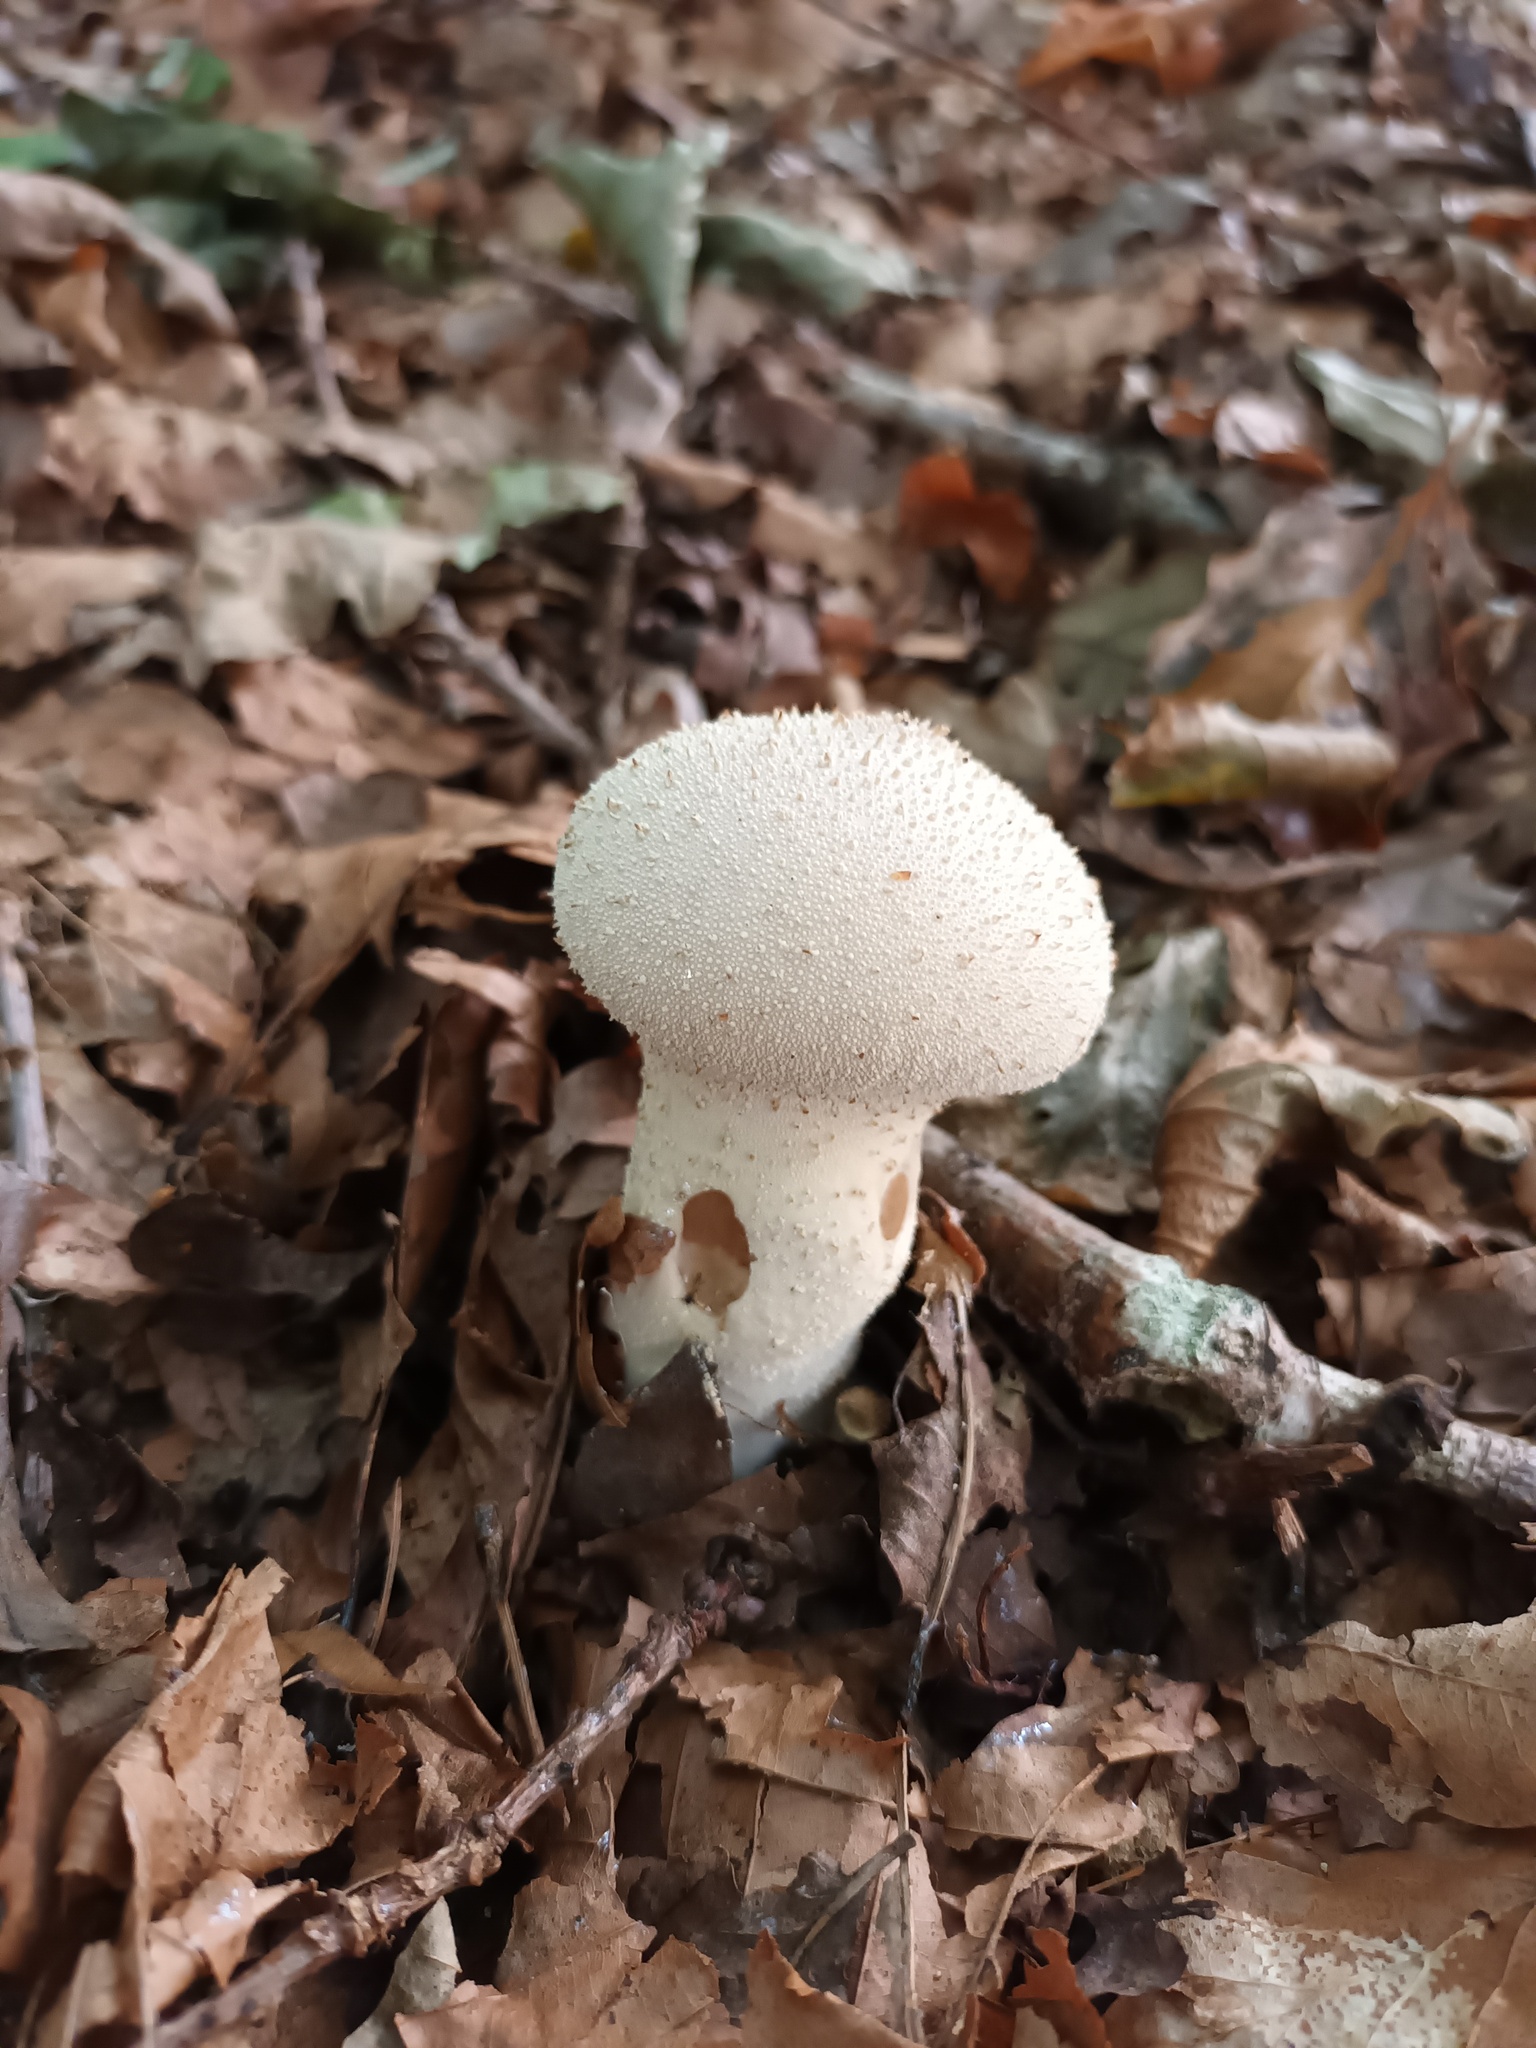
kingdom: Fungi
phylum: Basidiomycota
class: Agaricomycetes
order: Agaricales
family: Lycoperdaceae
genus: Lycoperdon
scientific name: Lycoperdon perlatum
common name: Common puffball
